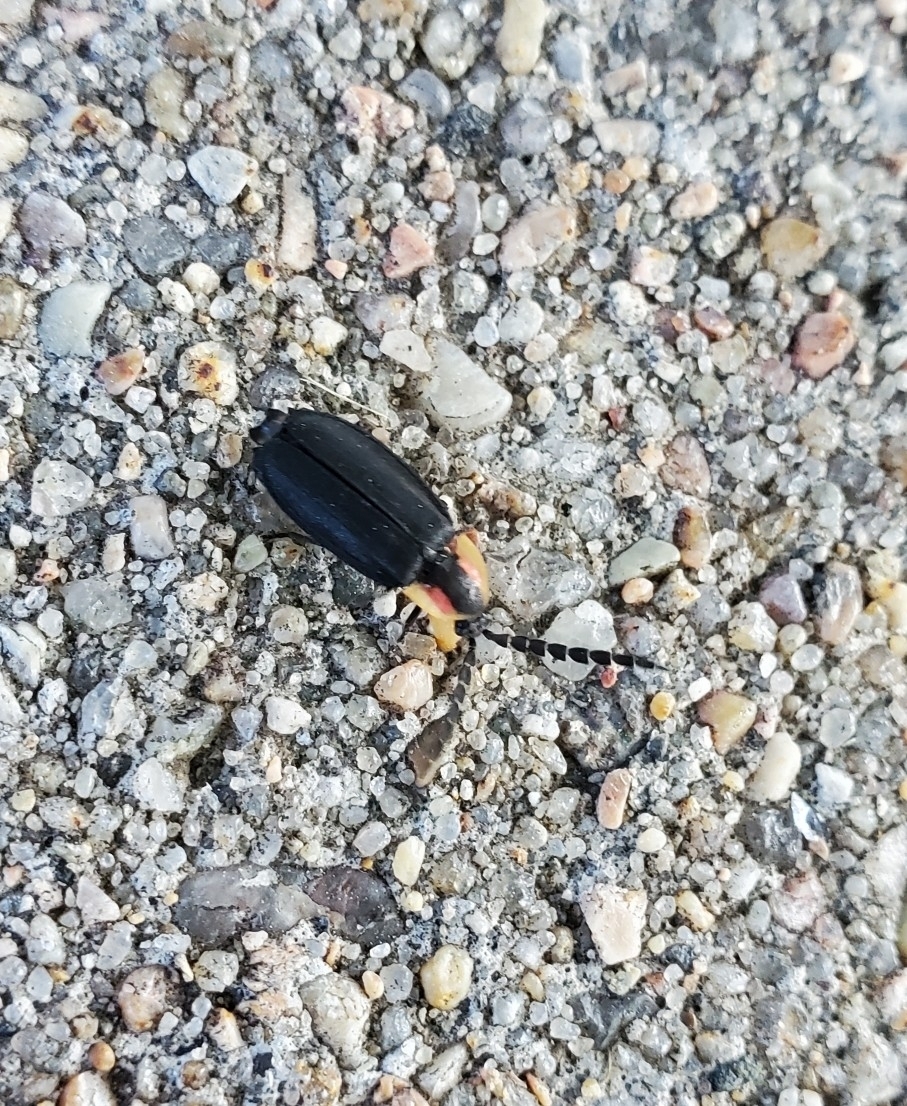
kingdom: Animalia
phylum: Arthropoda
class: Insecta
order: Coleoptera
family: Lampyridae
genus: Lucidota
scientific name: Lucidota atra
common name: Black firefly
